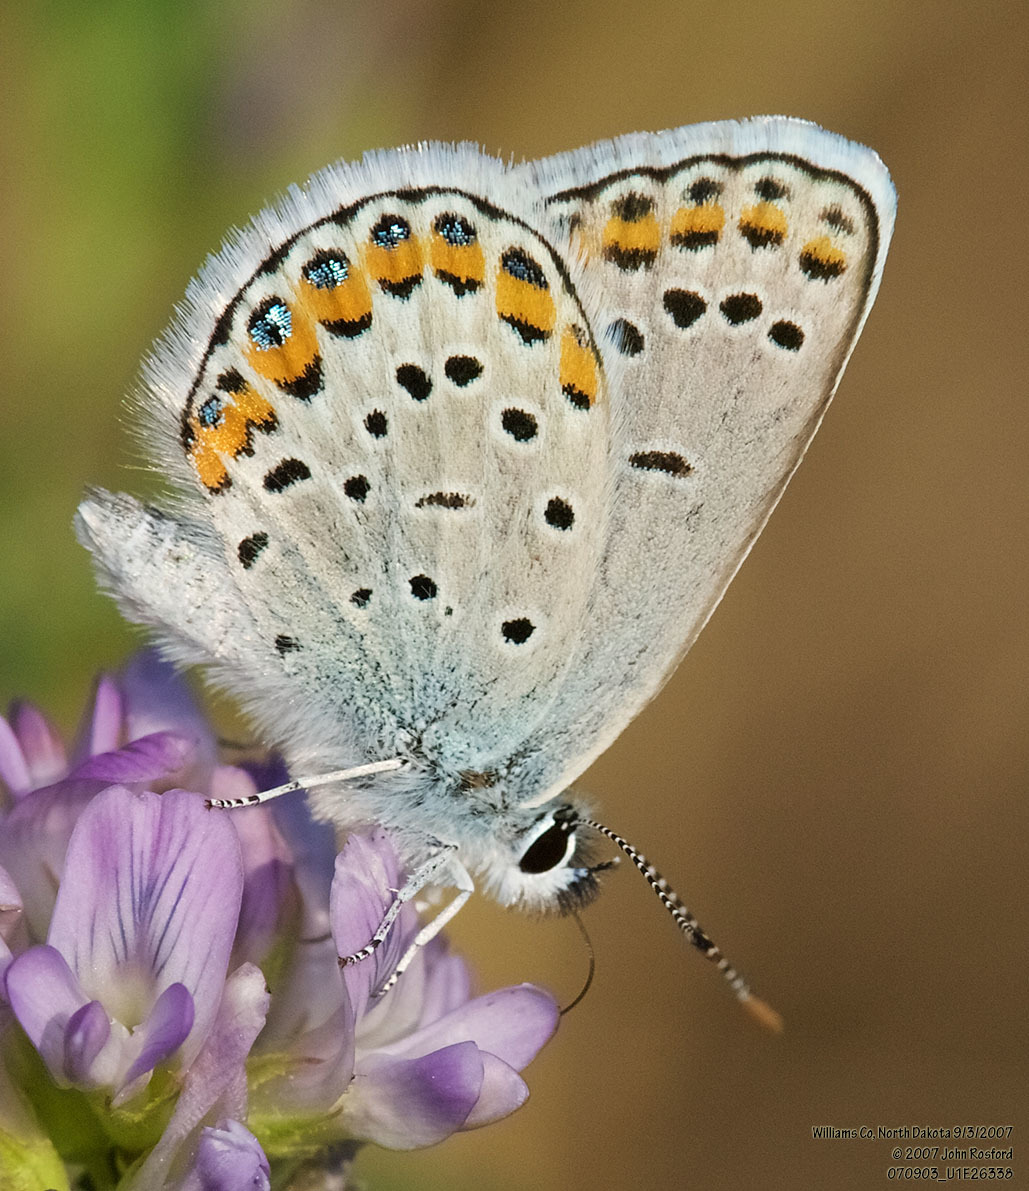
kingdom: Animalia
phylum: Arthropoda
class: Insecta
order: Lepidoptera
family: Lycaenidae
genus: Lycaeides
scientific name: Lycaeides melissa
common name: Melissa blue
